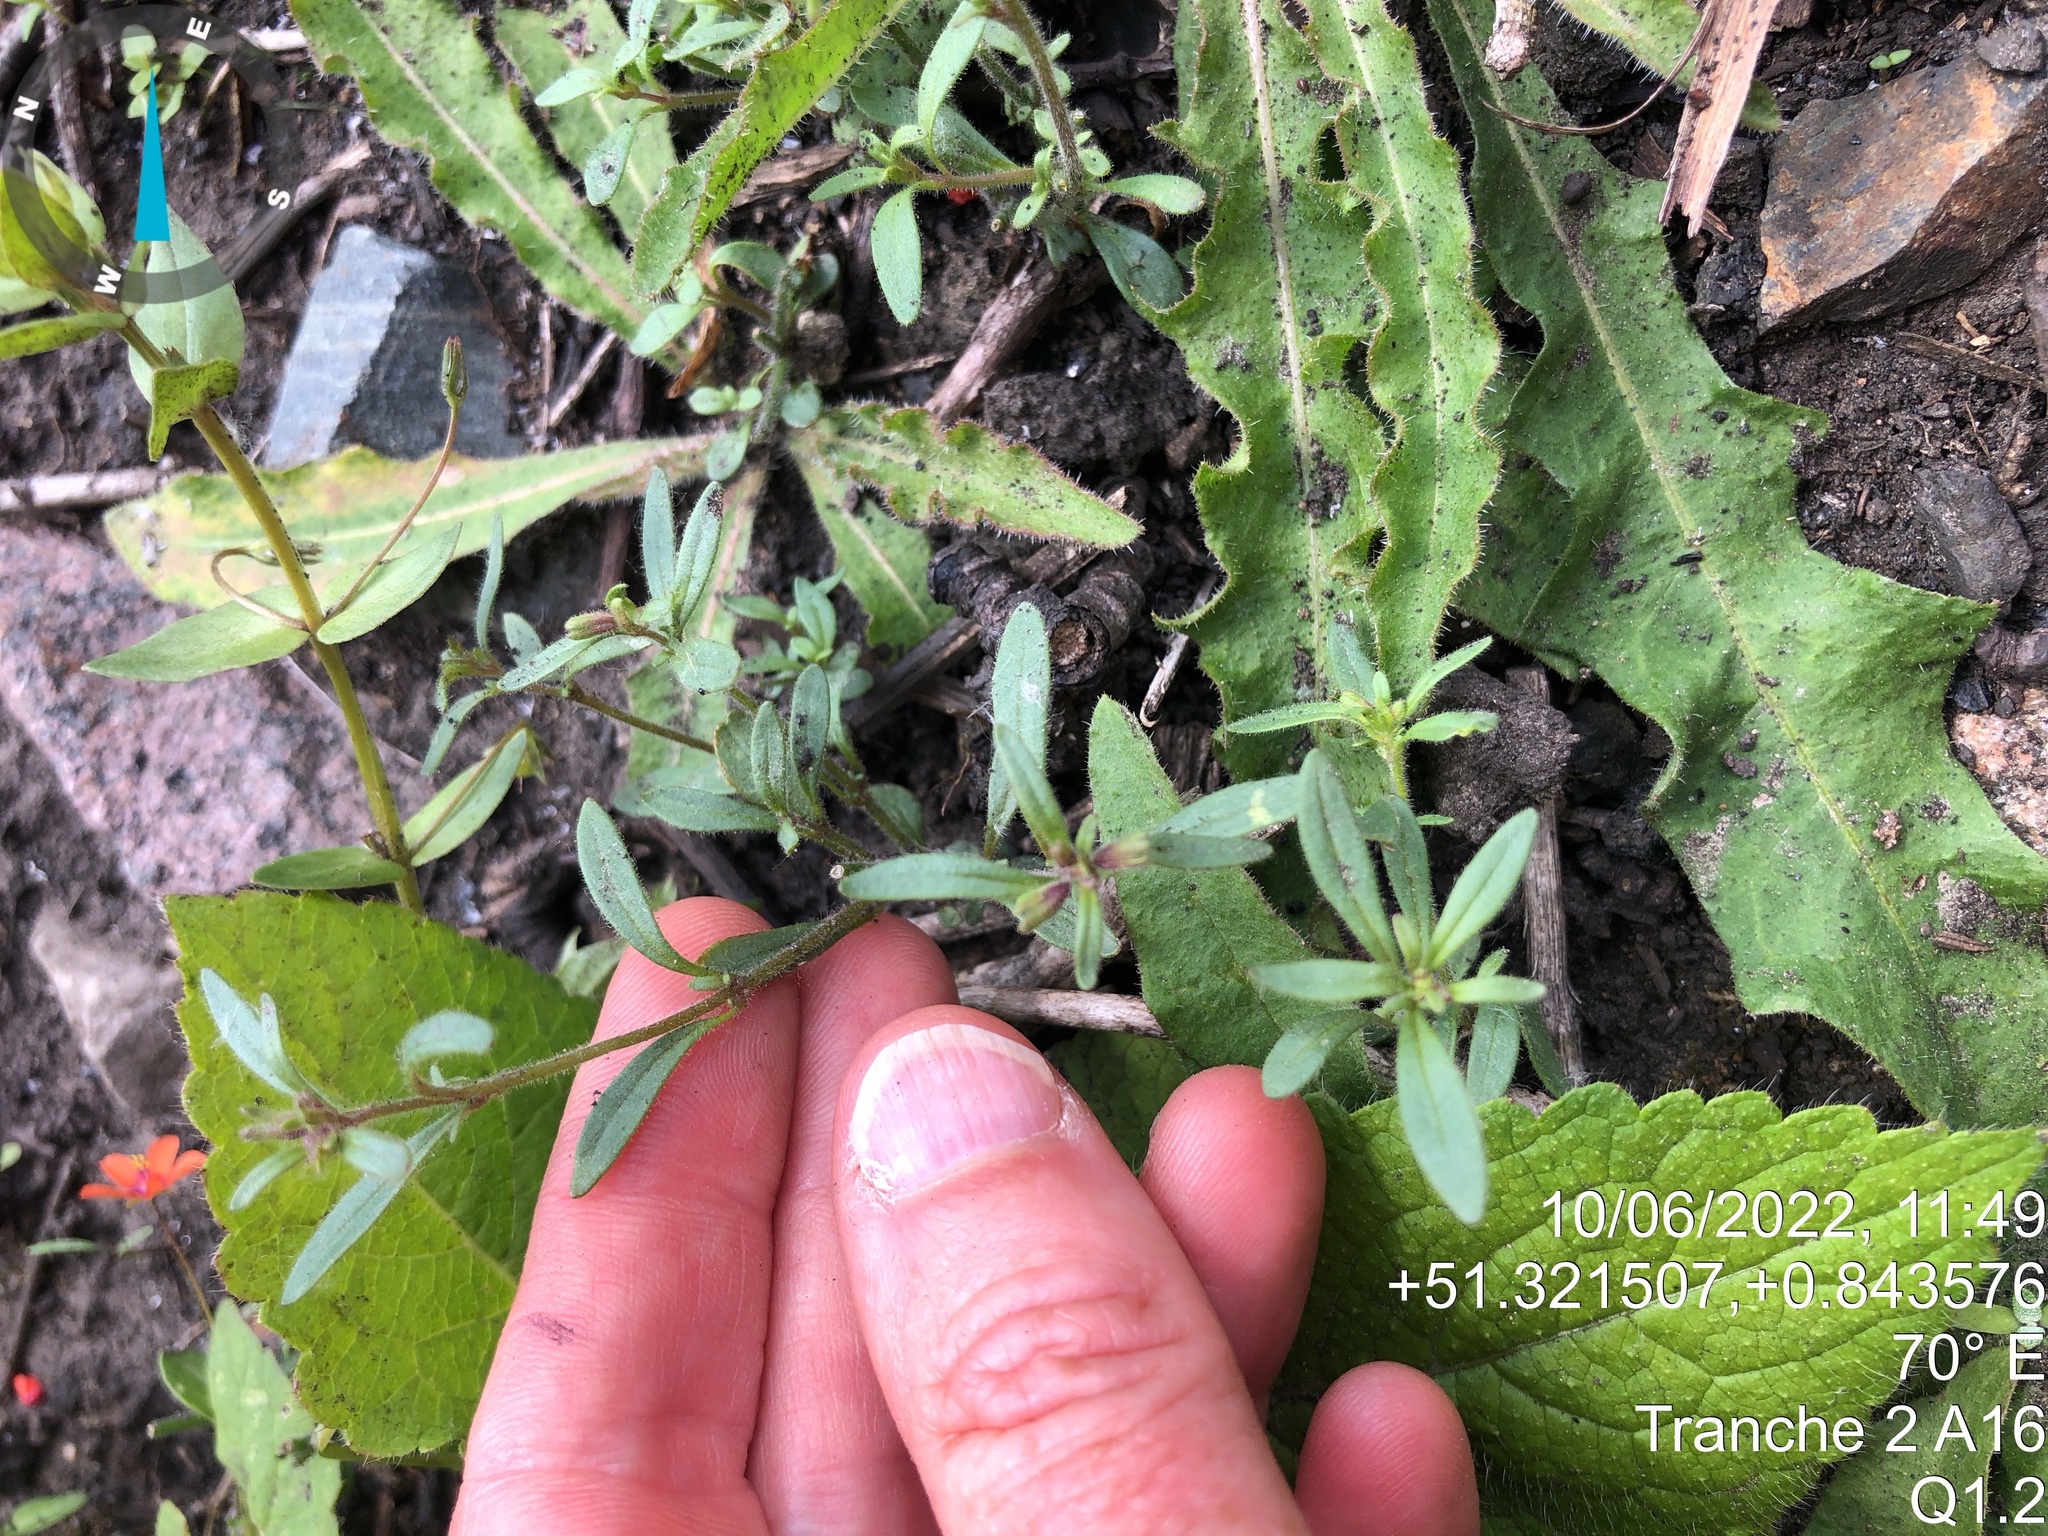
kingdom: Plantae
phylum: Tracheophyta
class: Magnoliopsida
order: Lamiales
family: Plantaginaceae
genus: Chaenorhinum
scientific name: Chaenorhinum minus
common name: Dwarf snapdragon
